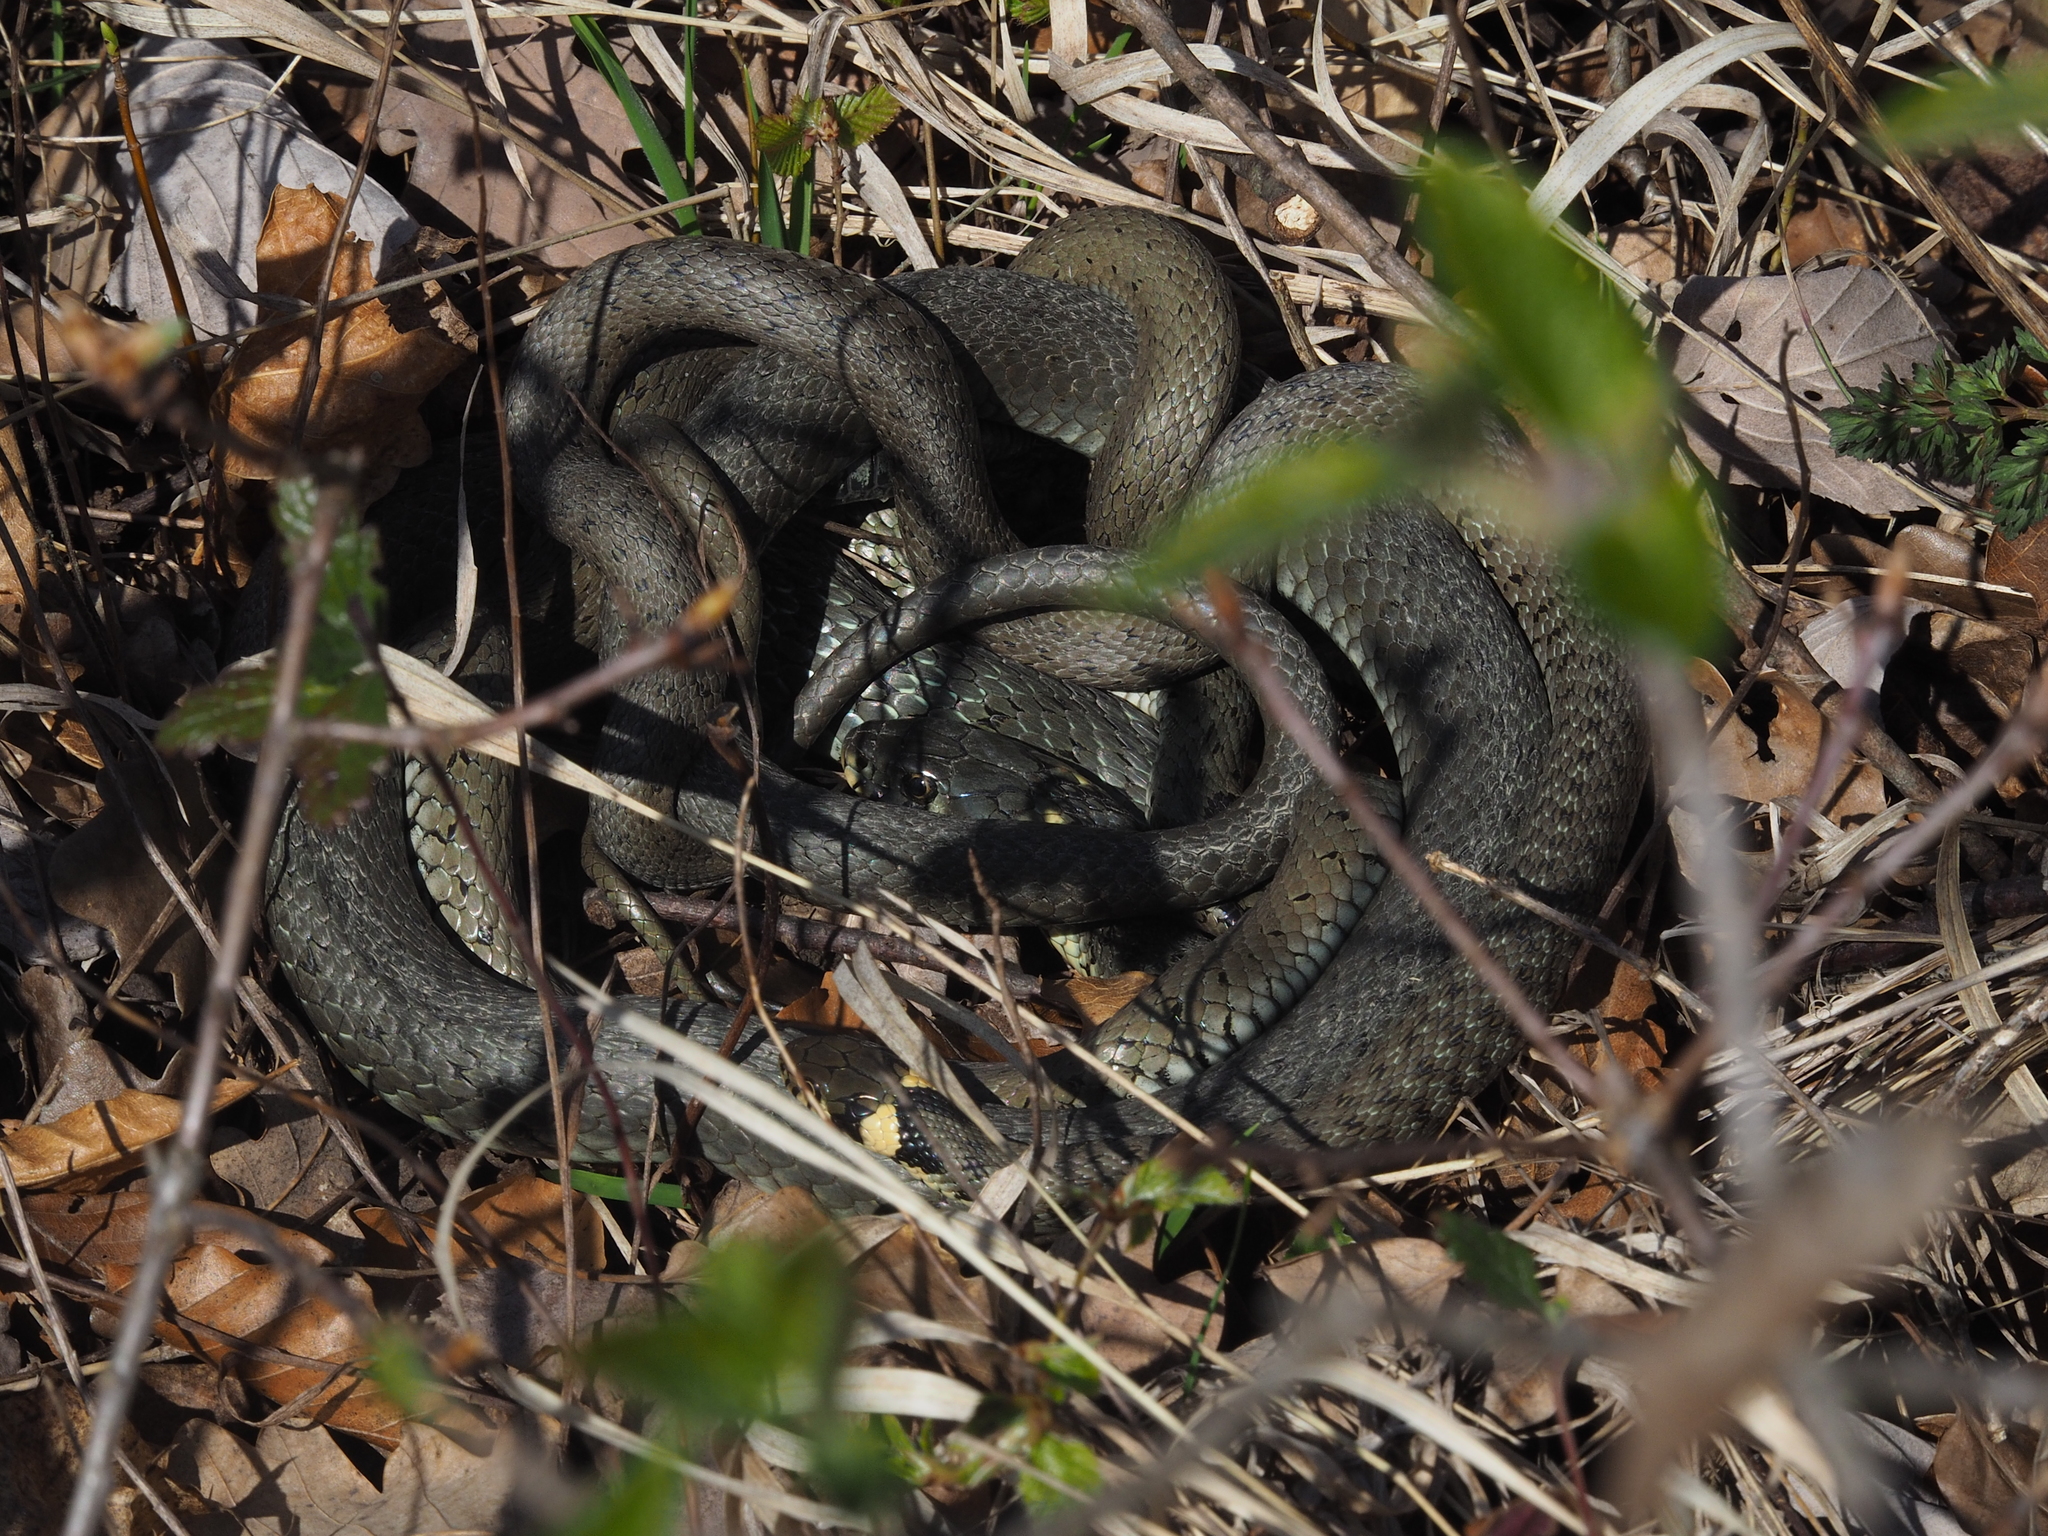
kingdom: Animalia
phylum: Chordata
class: Squamata
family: Colubridae
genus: Natrix
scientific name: Natrix natrix
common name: Grass snake
